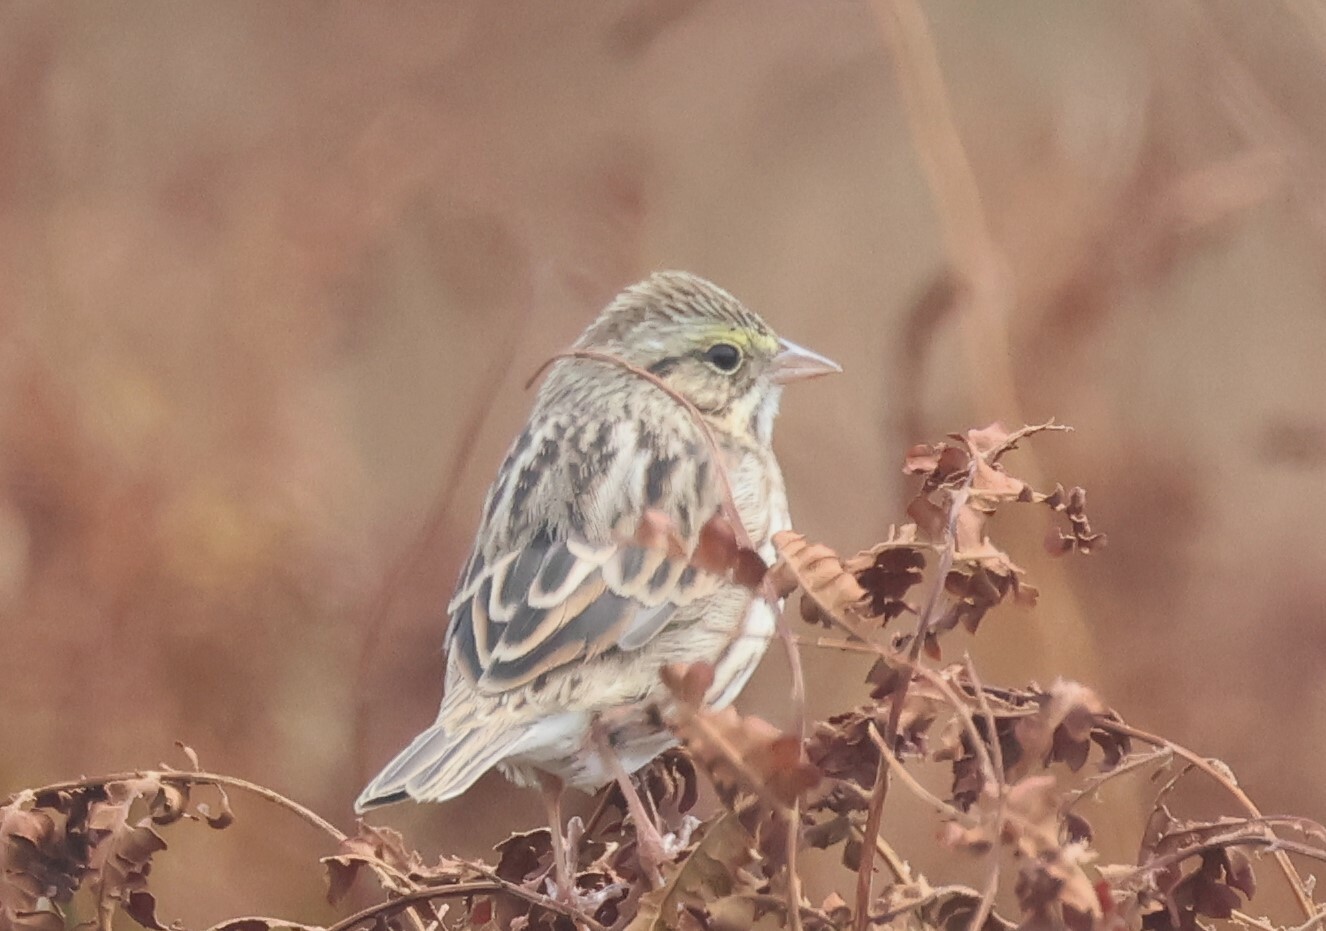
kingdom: Animalia
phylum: Chordata
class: Aves
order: Passeriformes
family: Passerellidae
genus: Passerculus
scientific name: Passerculus sandwichensis
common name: Savannah sparrow
